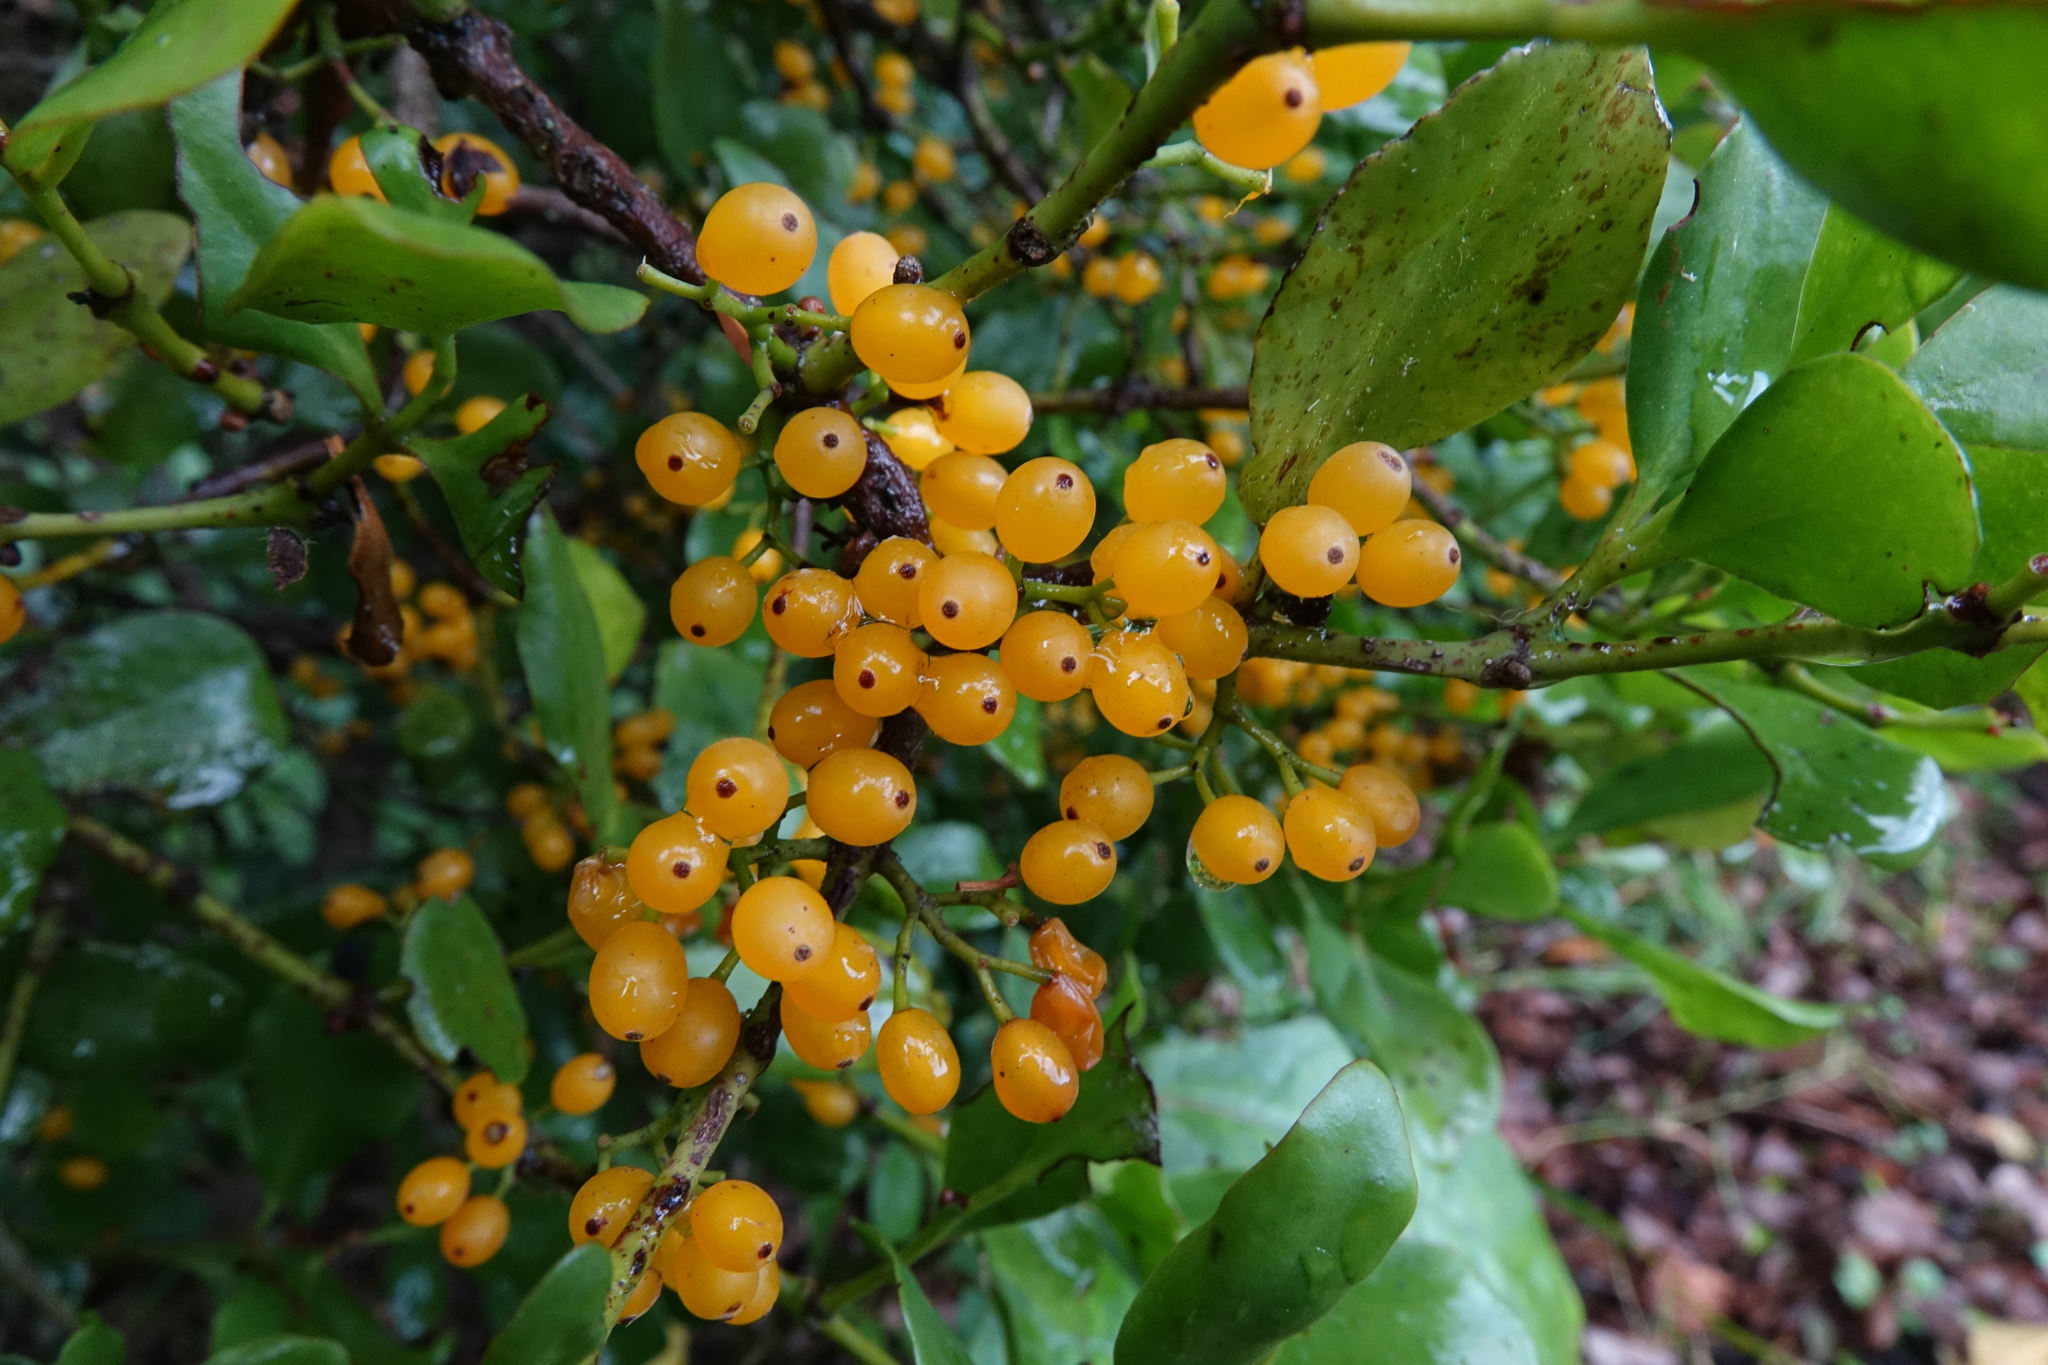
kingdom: Plantae
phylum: Tracheophyta
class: Magnoliopsida
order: Santalales
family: Loranthaceae
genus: Ileostylus
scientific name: Ileostylus micranthus
